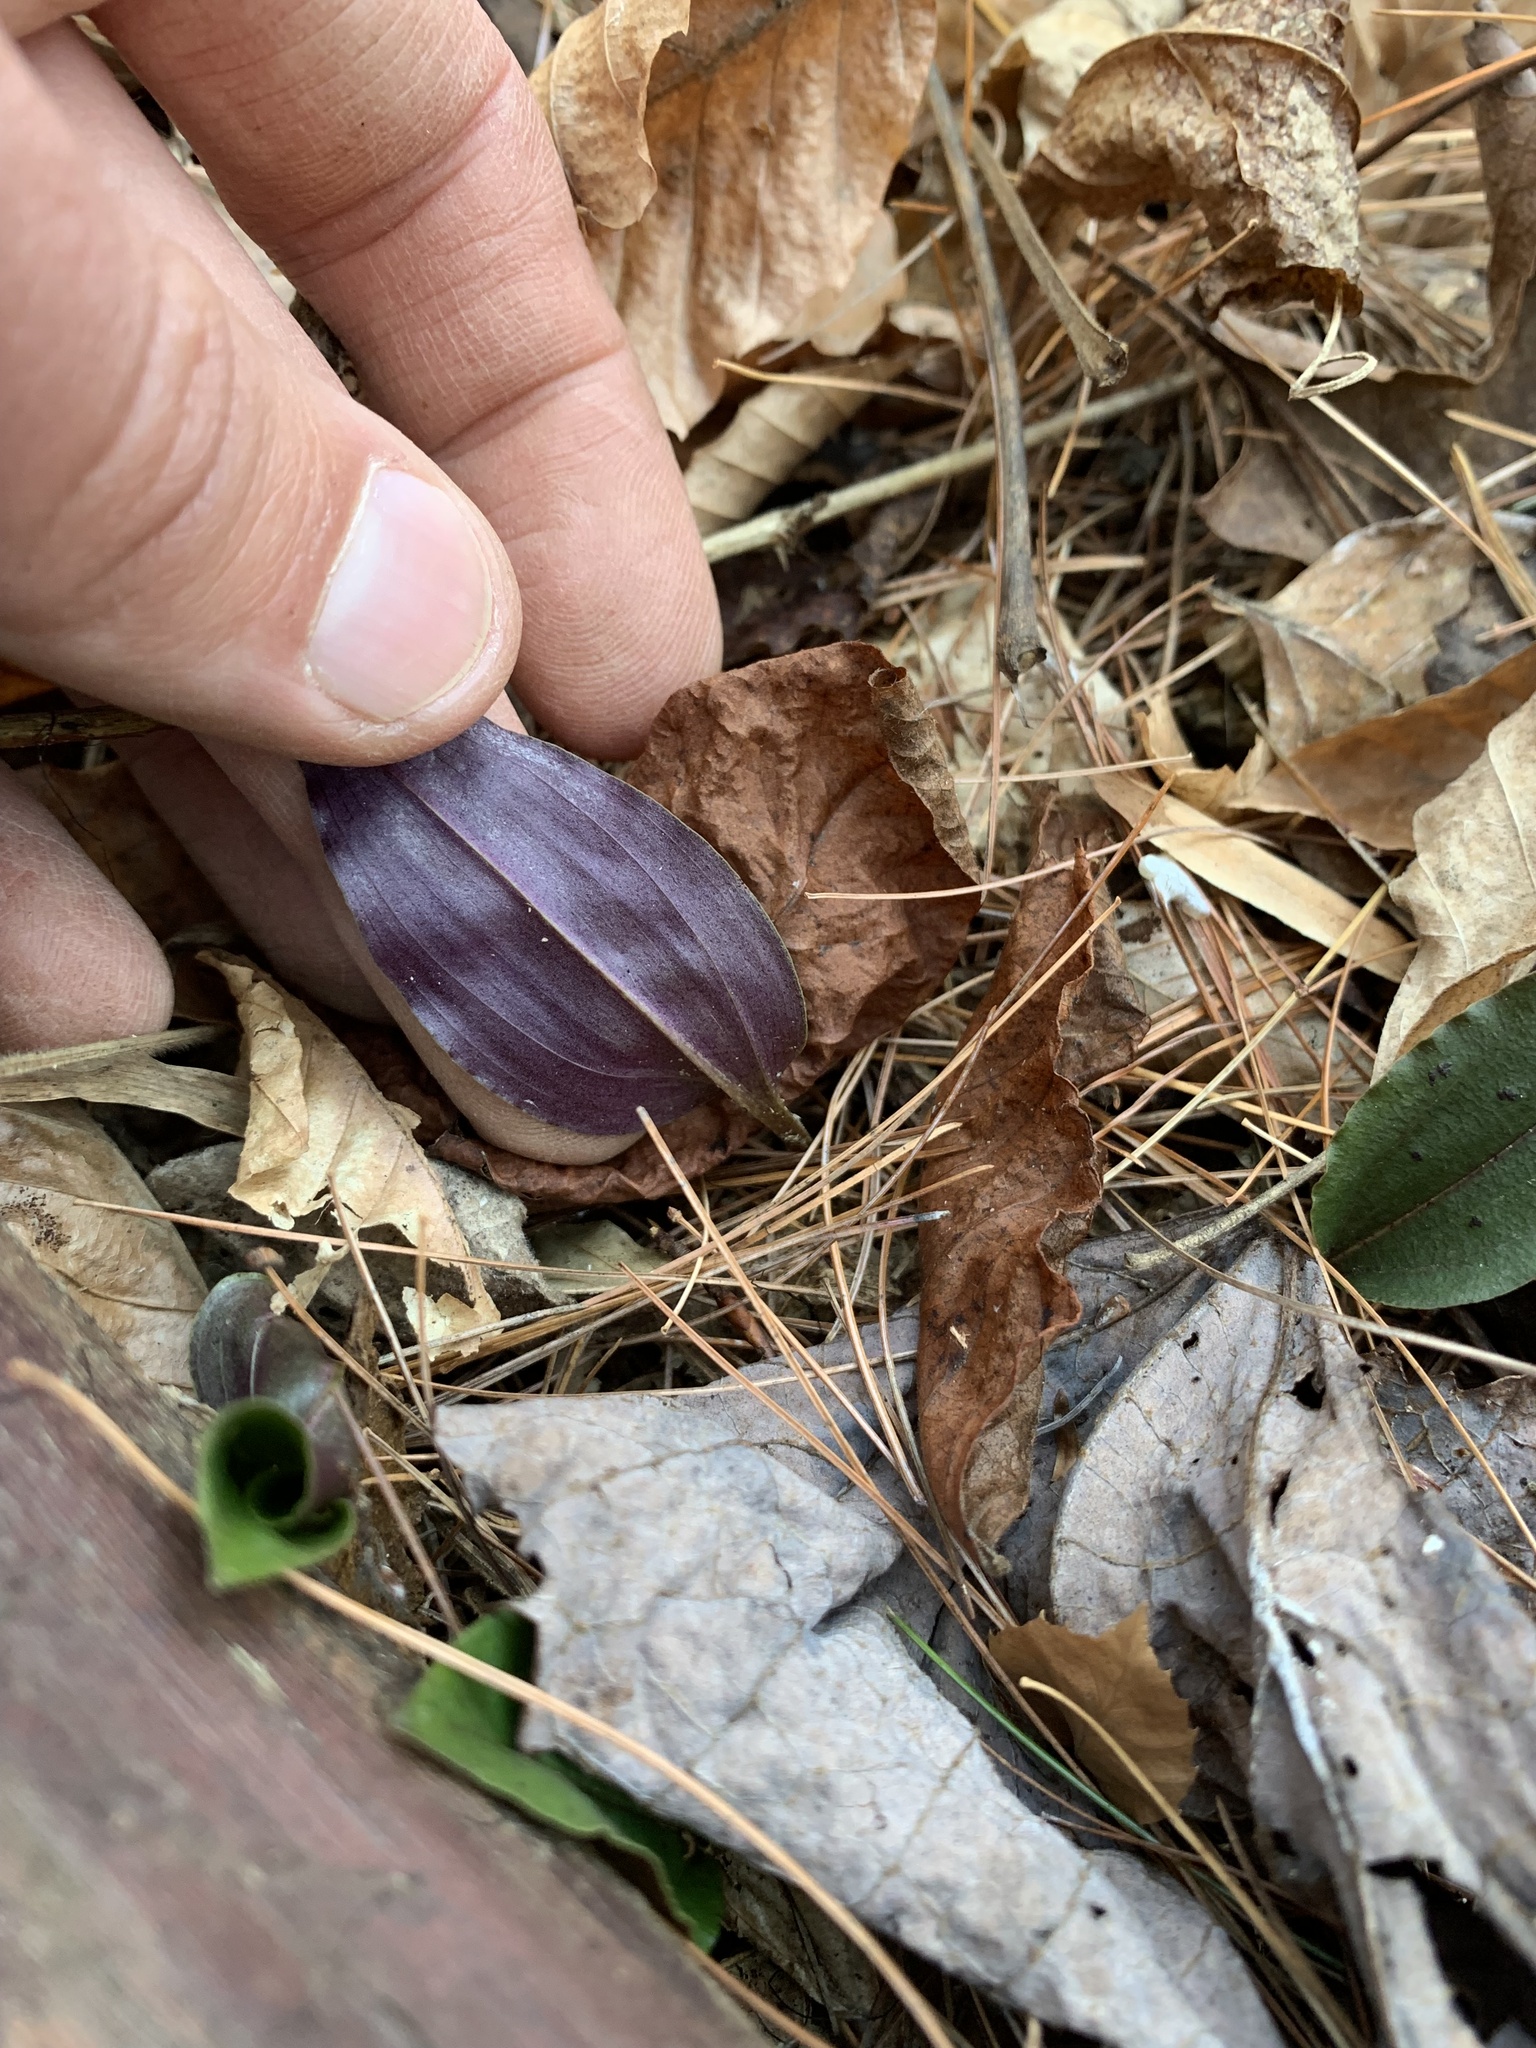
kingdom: Plantae
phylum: Tracheophyta
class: Liliopsida
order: Asparagales
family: Orchidaceae
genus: Tipularia
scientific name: Tipularia discolor
